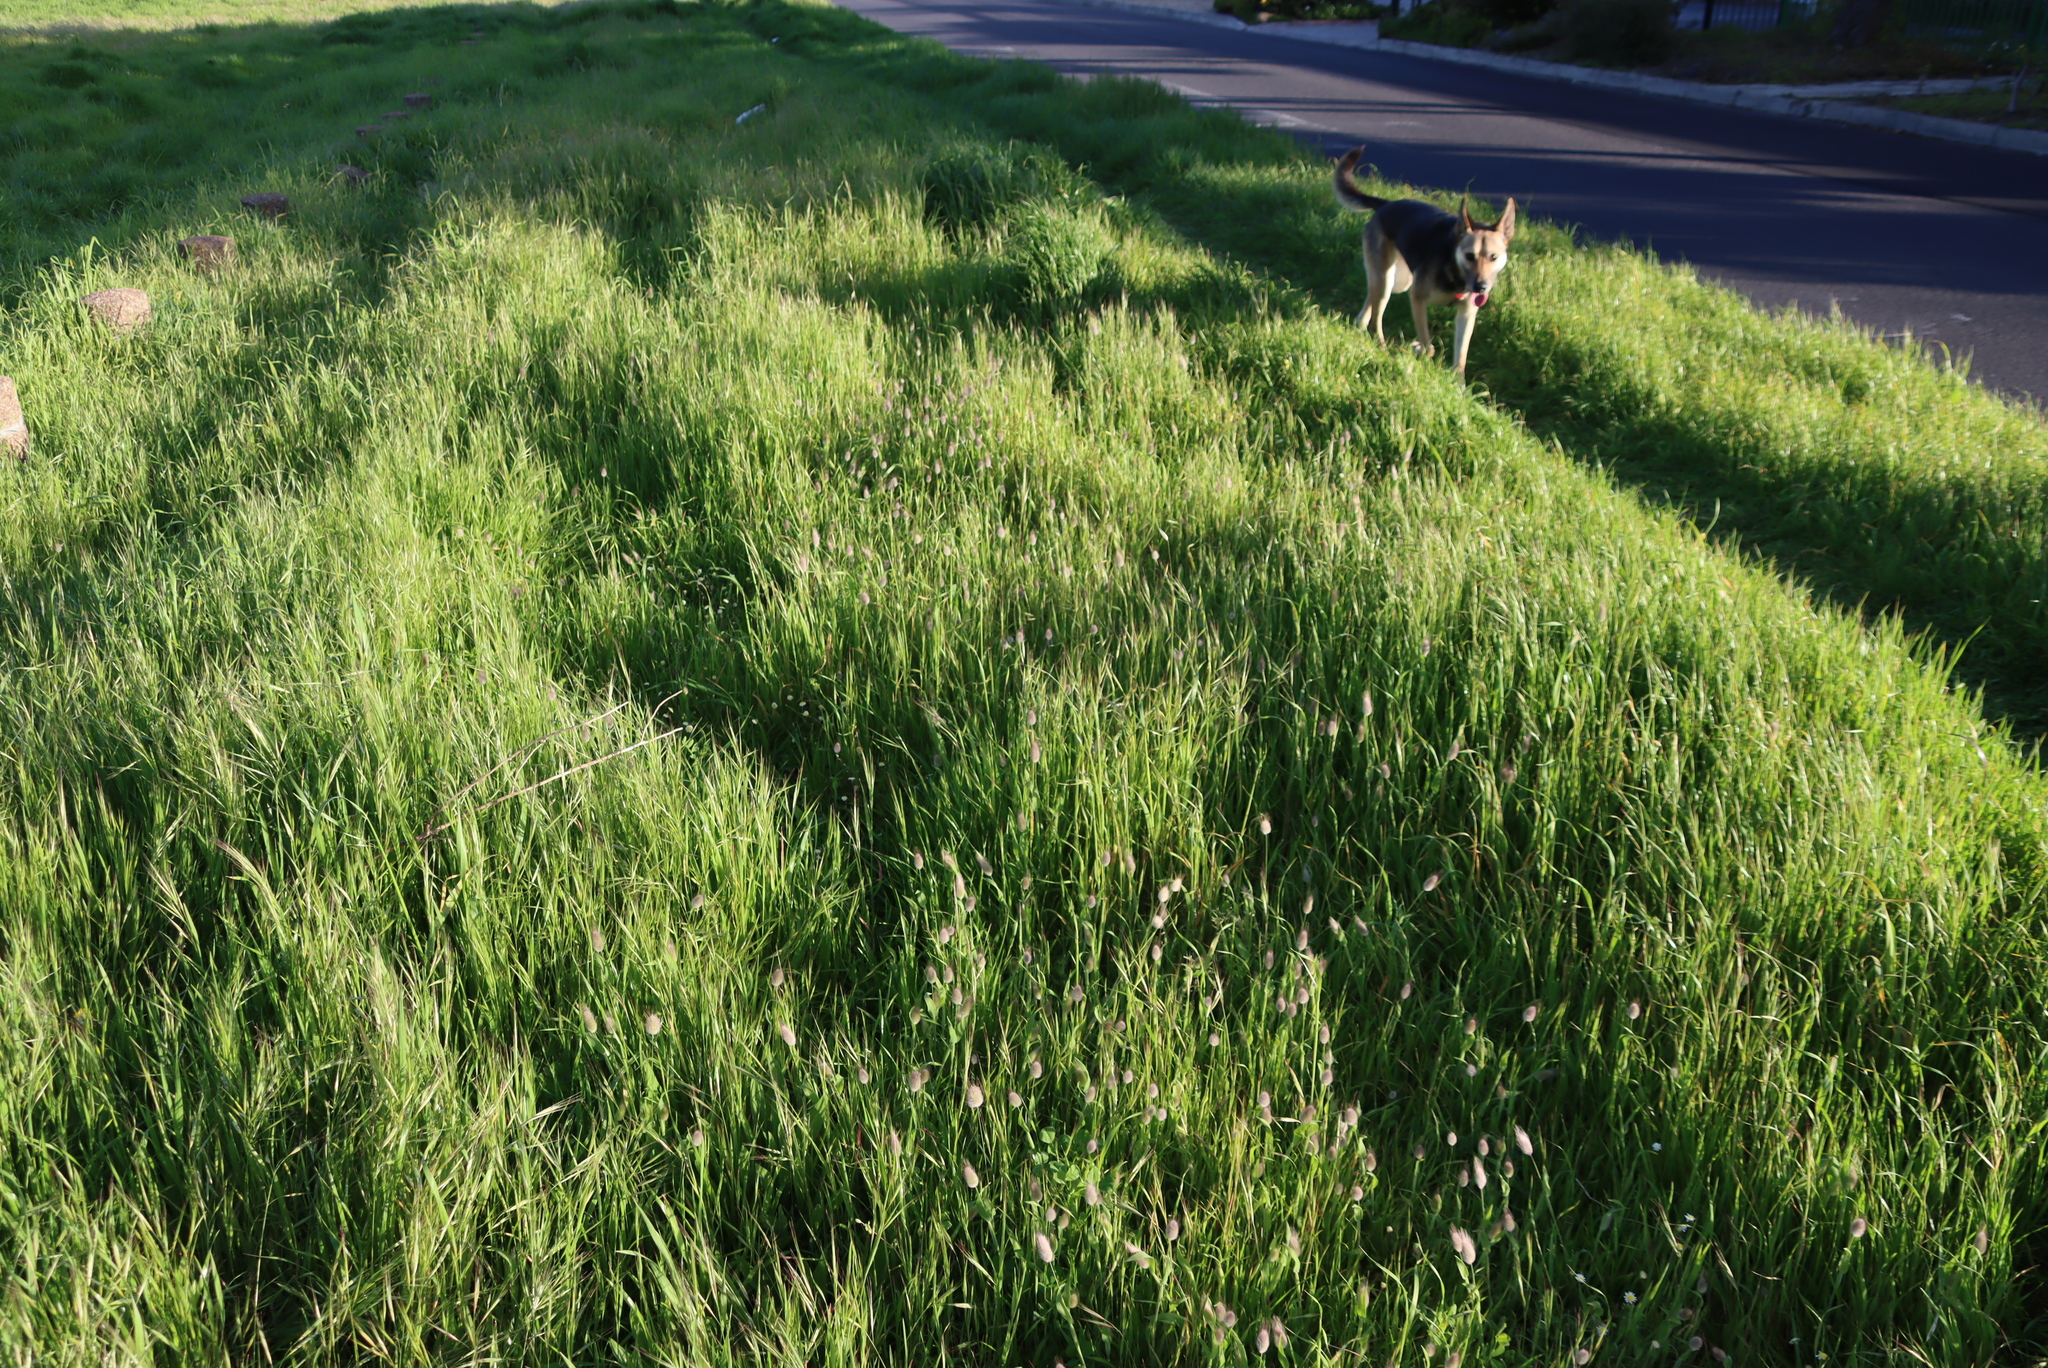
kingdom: Plantae
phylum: Tracheophyta
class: Liliopsida
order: Poales
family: Poaceae
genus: Lagurus
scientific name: Lagurus ovatus
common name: Hare's-tail
